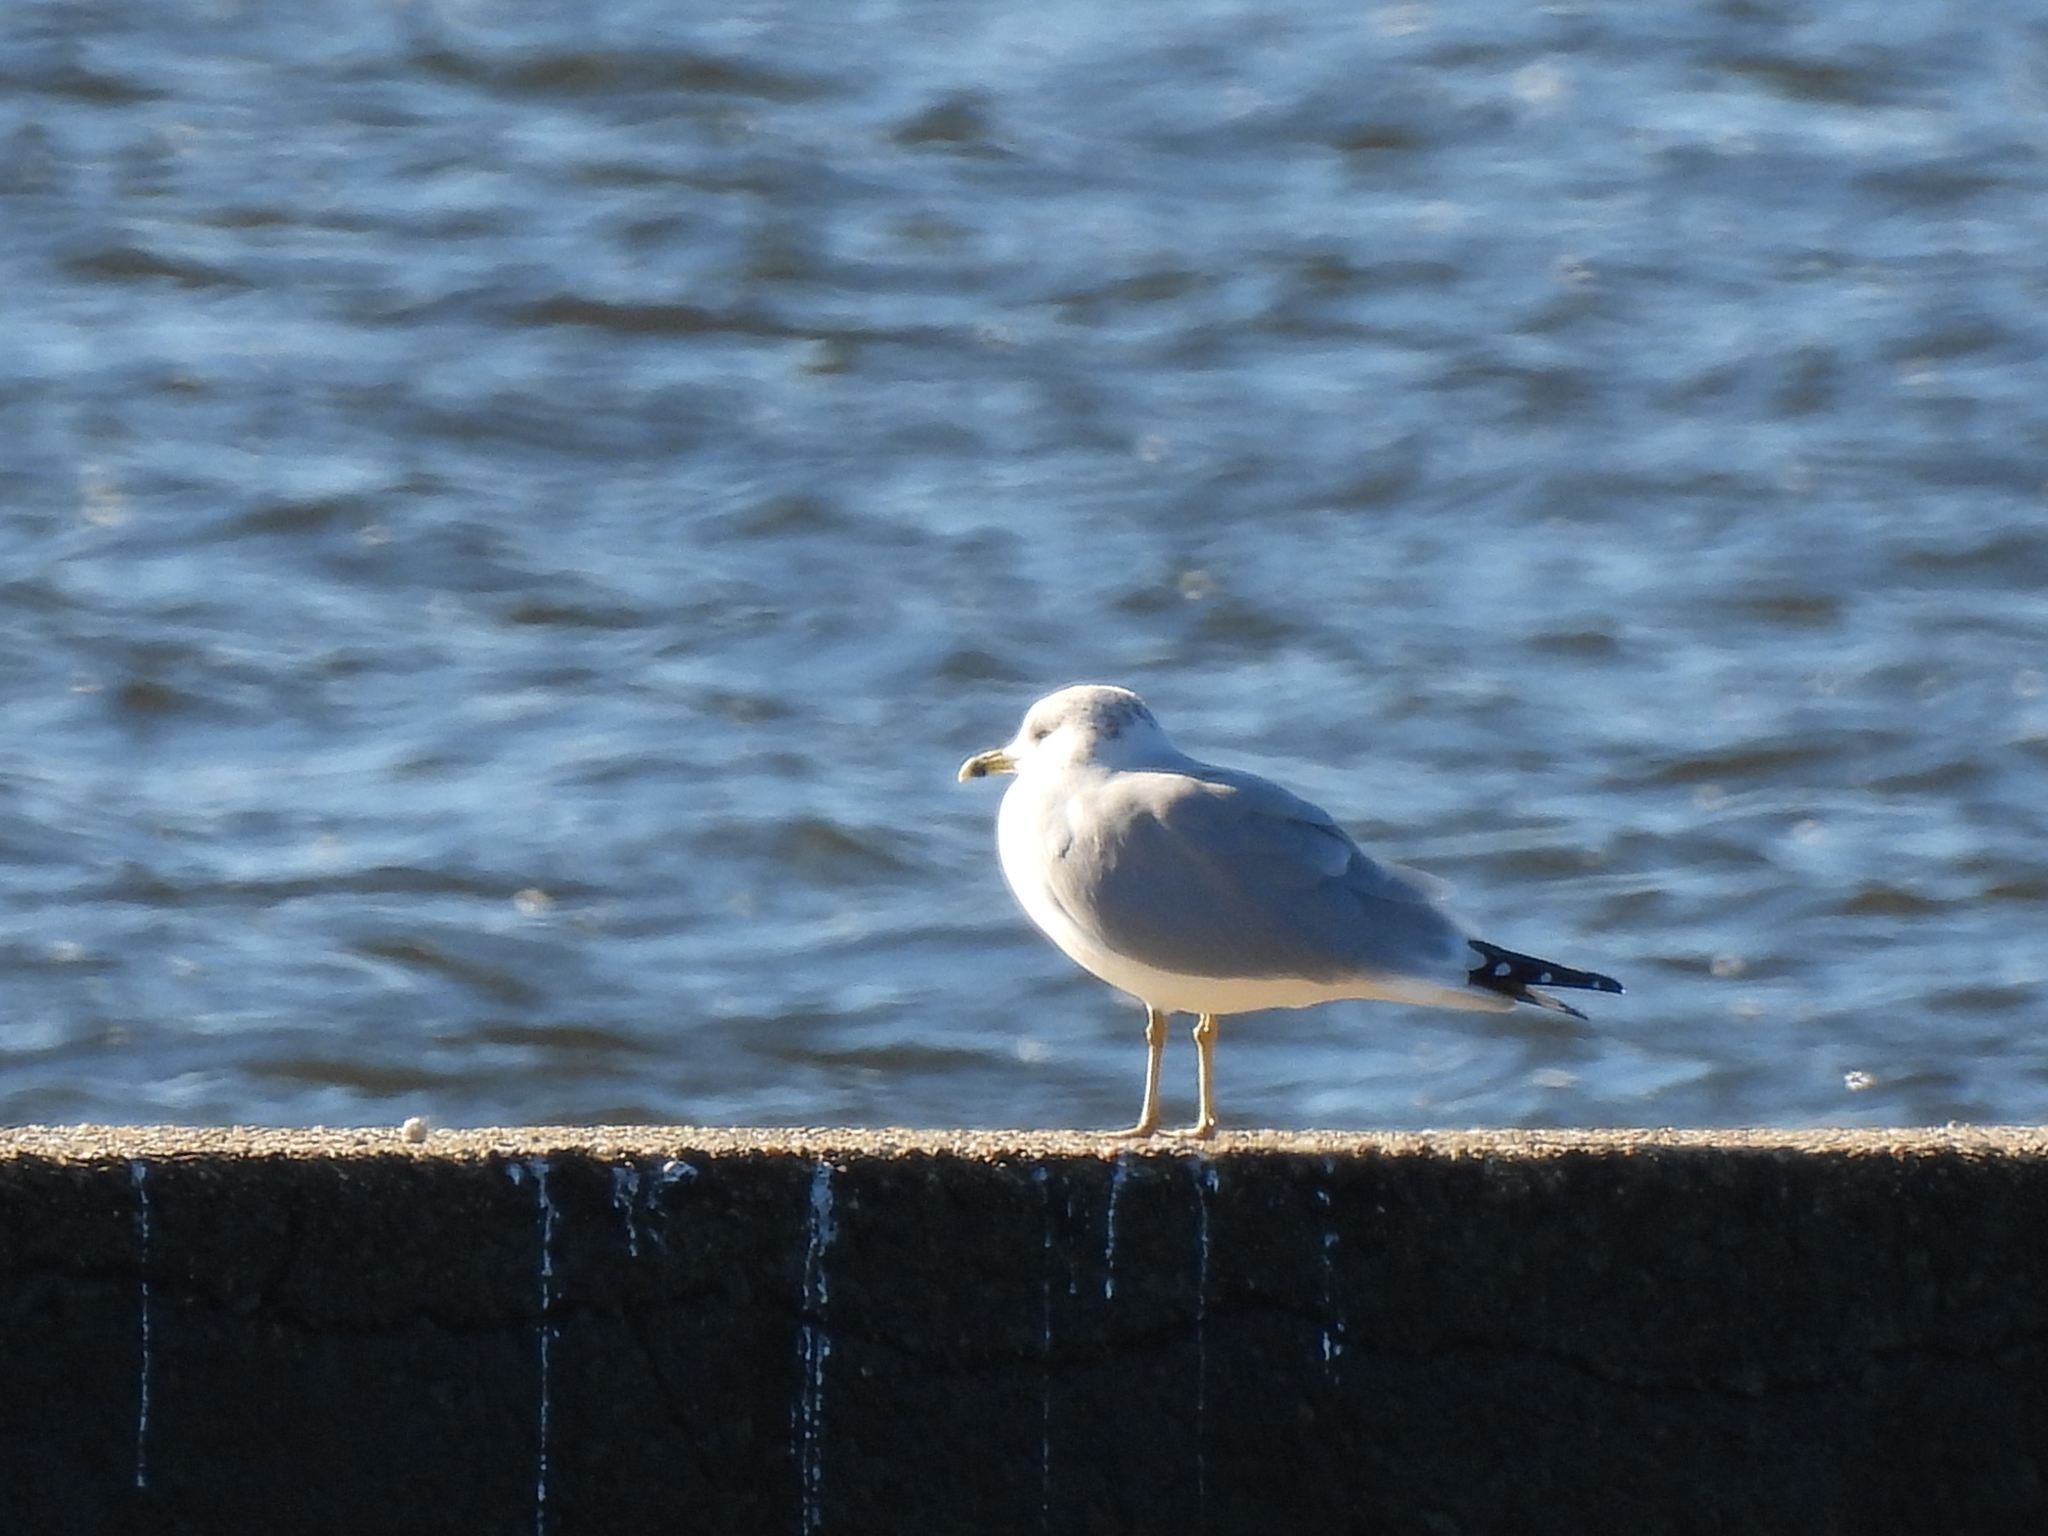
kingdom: Animalia
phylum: Chordata
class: Aves
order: Charadriiformes
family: Laridae
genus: Larus
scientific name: Larus delawarensis
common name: Ring-billed gull
